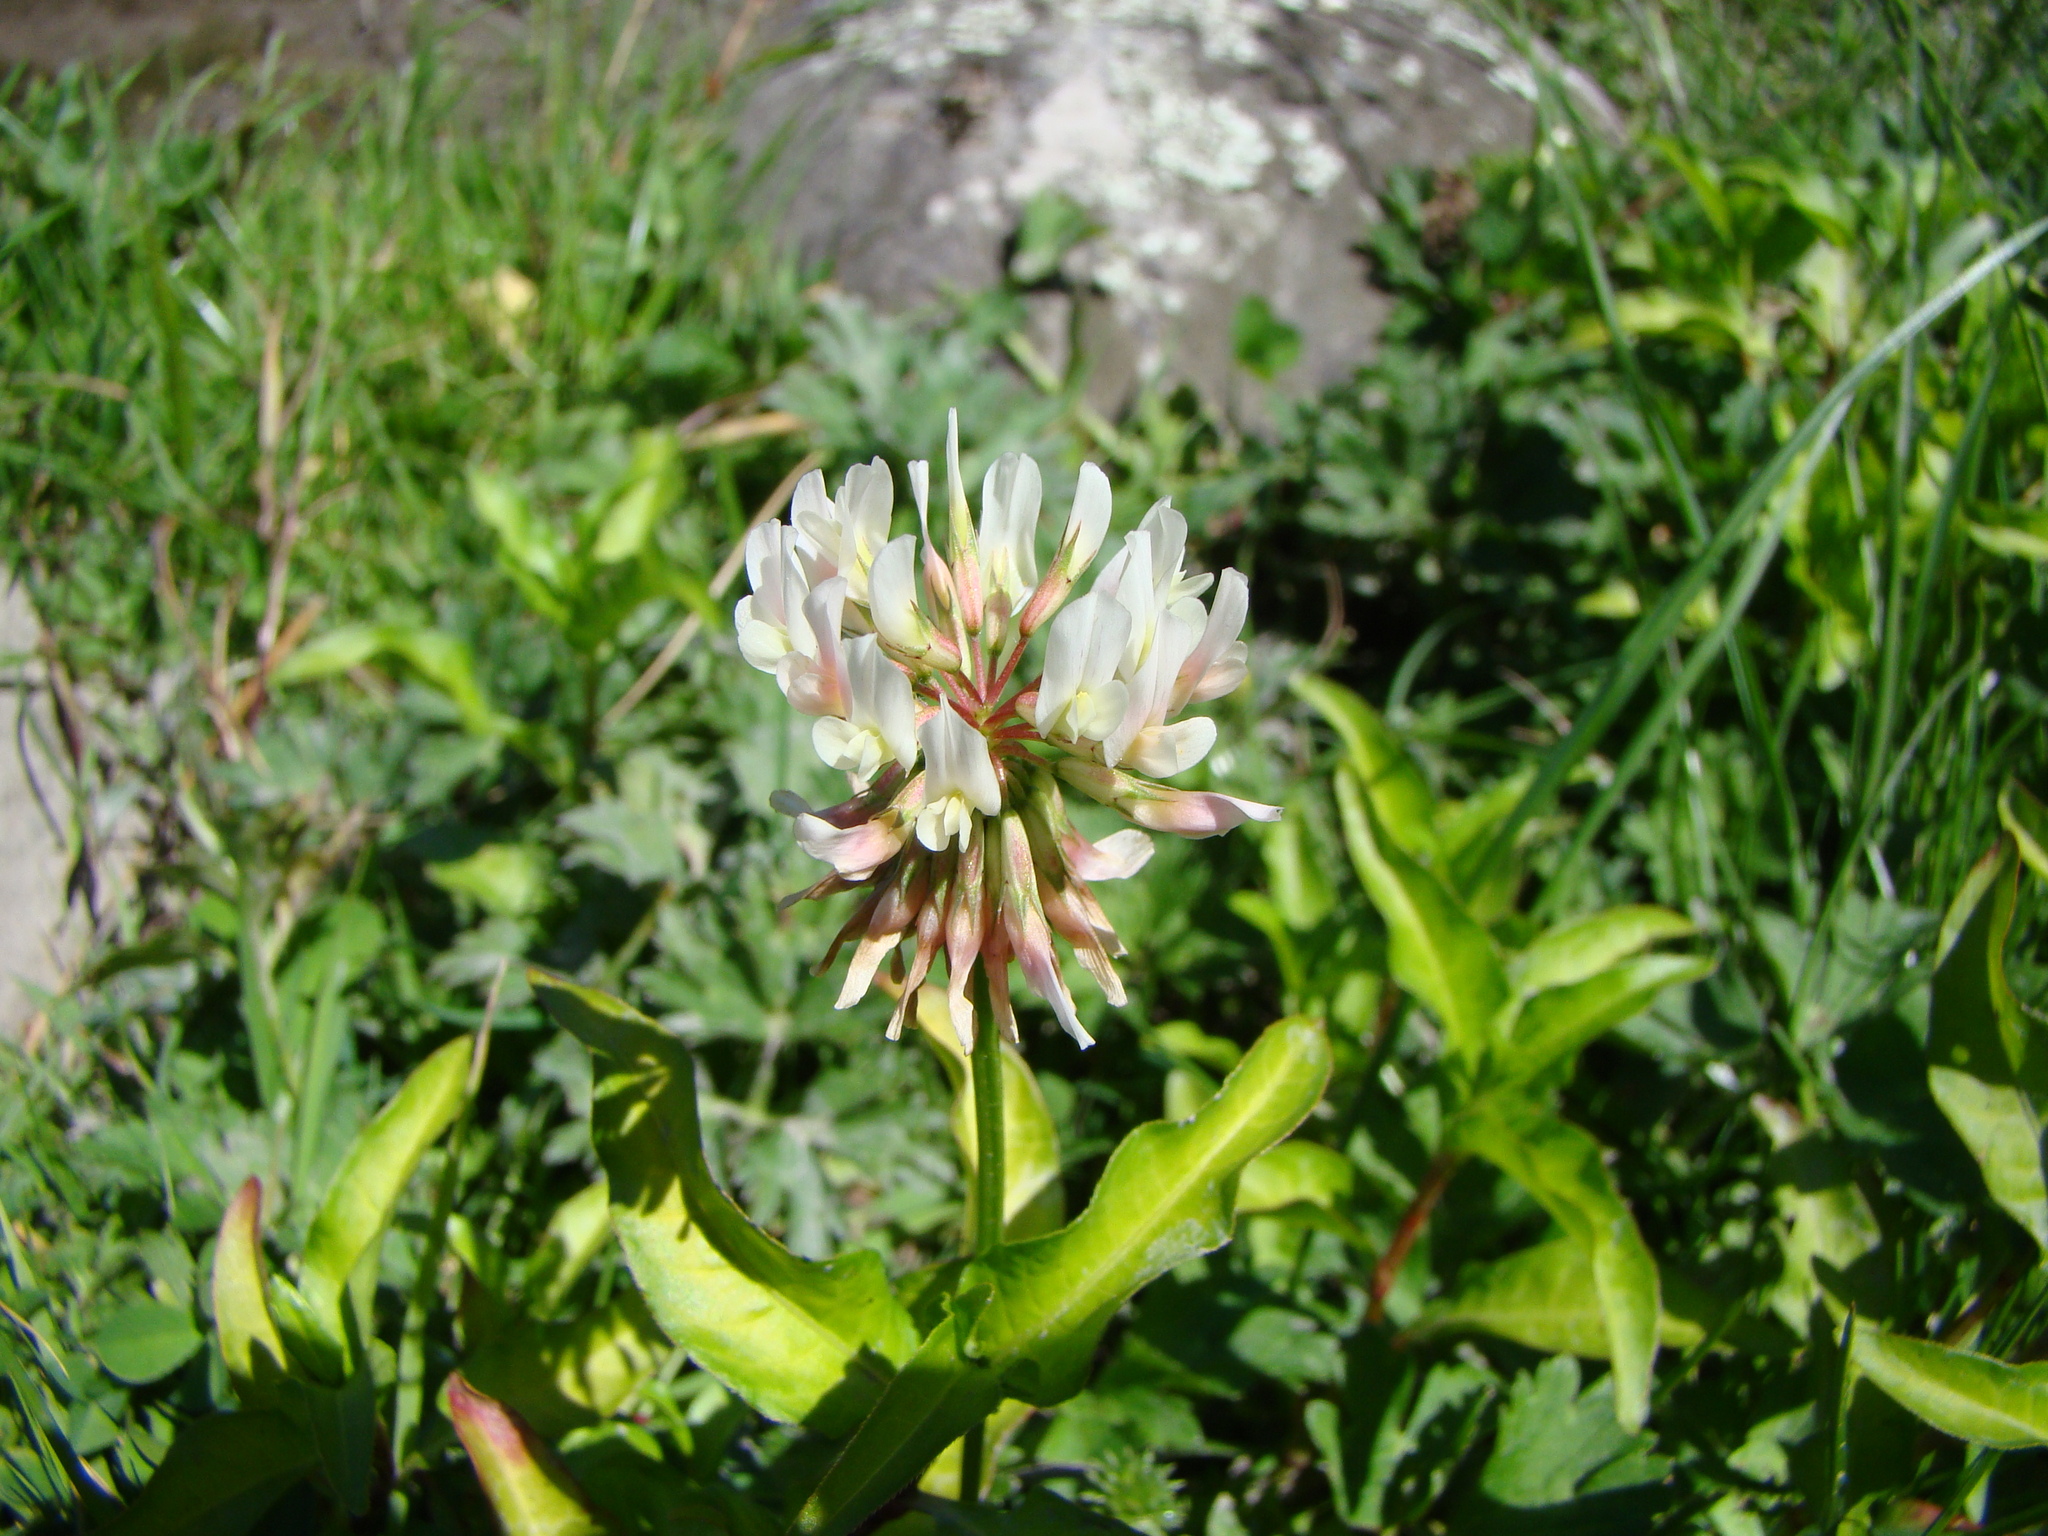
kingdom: Plantae
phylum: Tracheophyta
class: Magnoliopsida
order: Fabales
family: Fabaceae
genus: Trifolium
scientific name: Trifolium repens
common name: White clover
